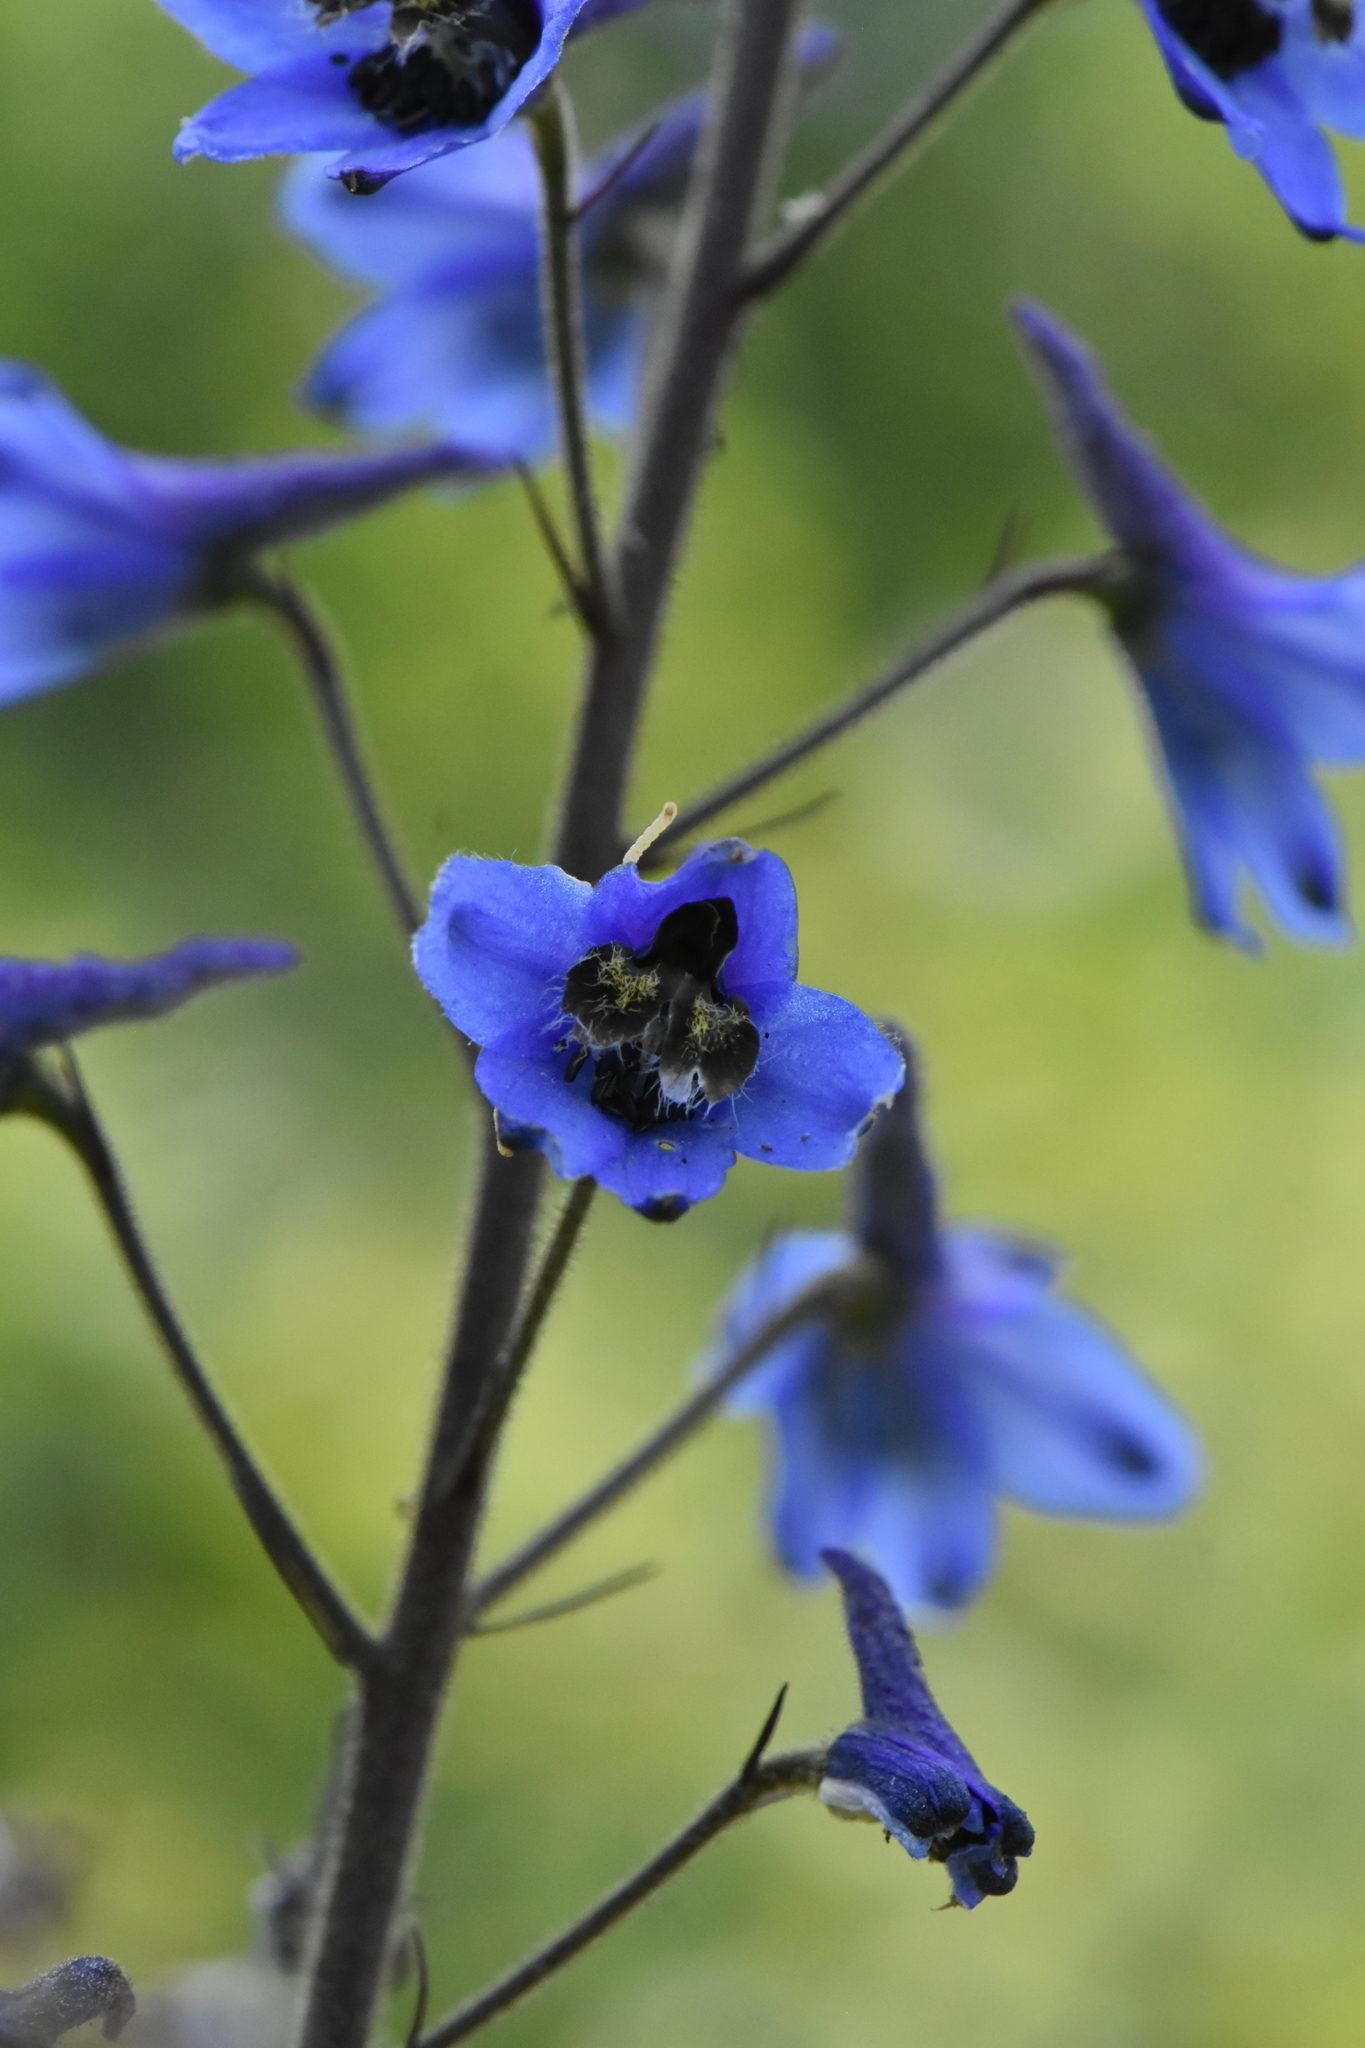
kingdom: Plantae
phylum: Tracheophyta
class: Magnoliopsida
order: Ranunculales
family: Ranunculaceae
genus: Delphinium
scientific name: Delphinium elatum
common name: Candle larkspur
